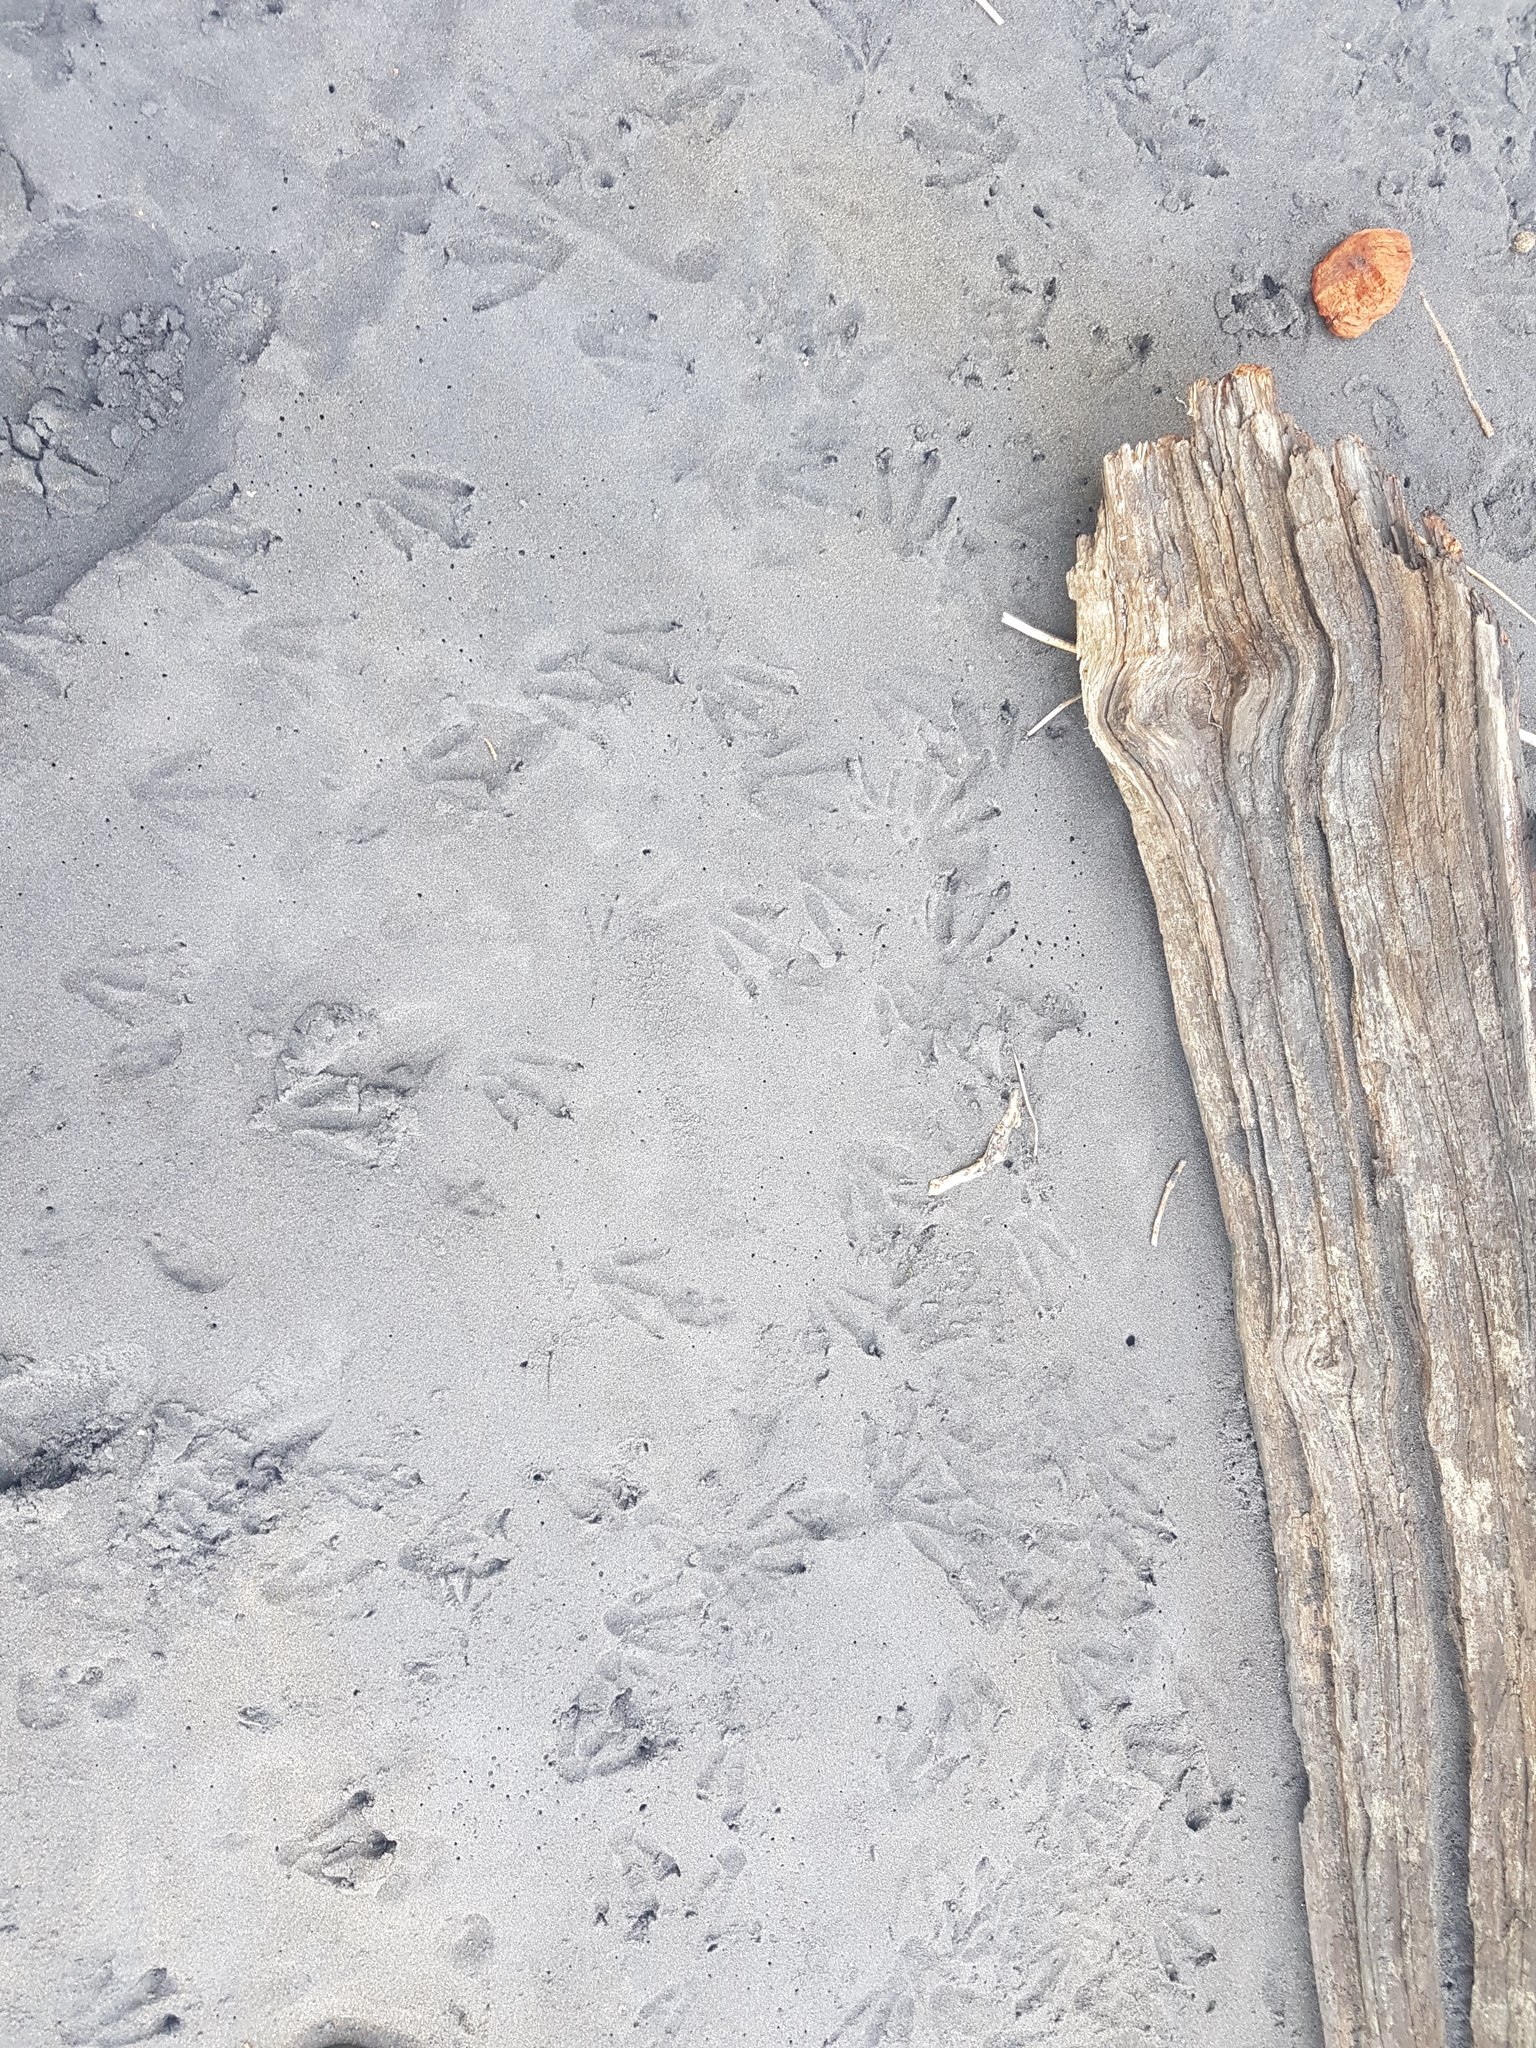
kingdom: Animalia
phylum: Chordata
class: Aves
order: Sphenisciformes
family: Spheniscidae
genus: Eudyptula
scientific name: Eudyptula minor
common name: Little penguin
